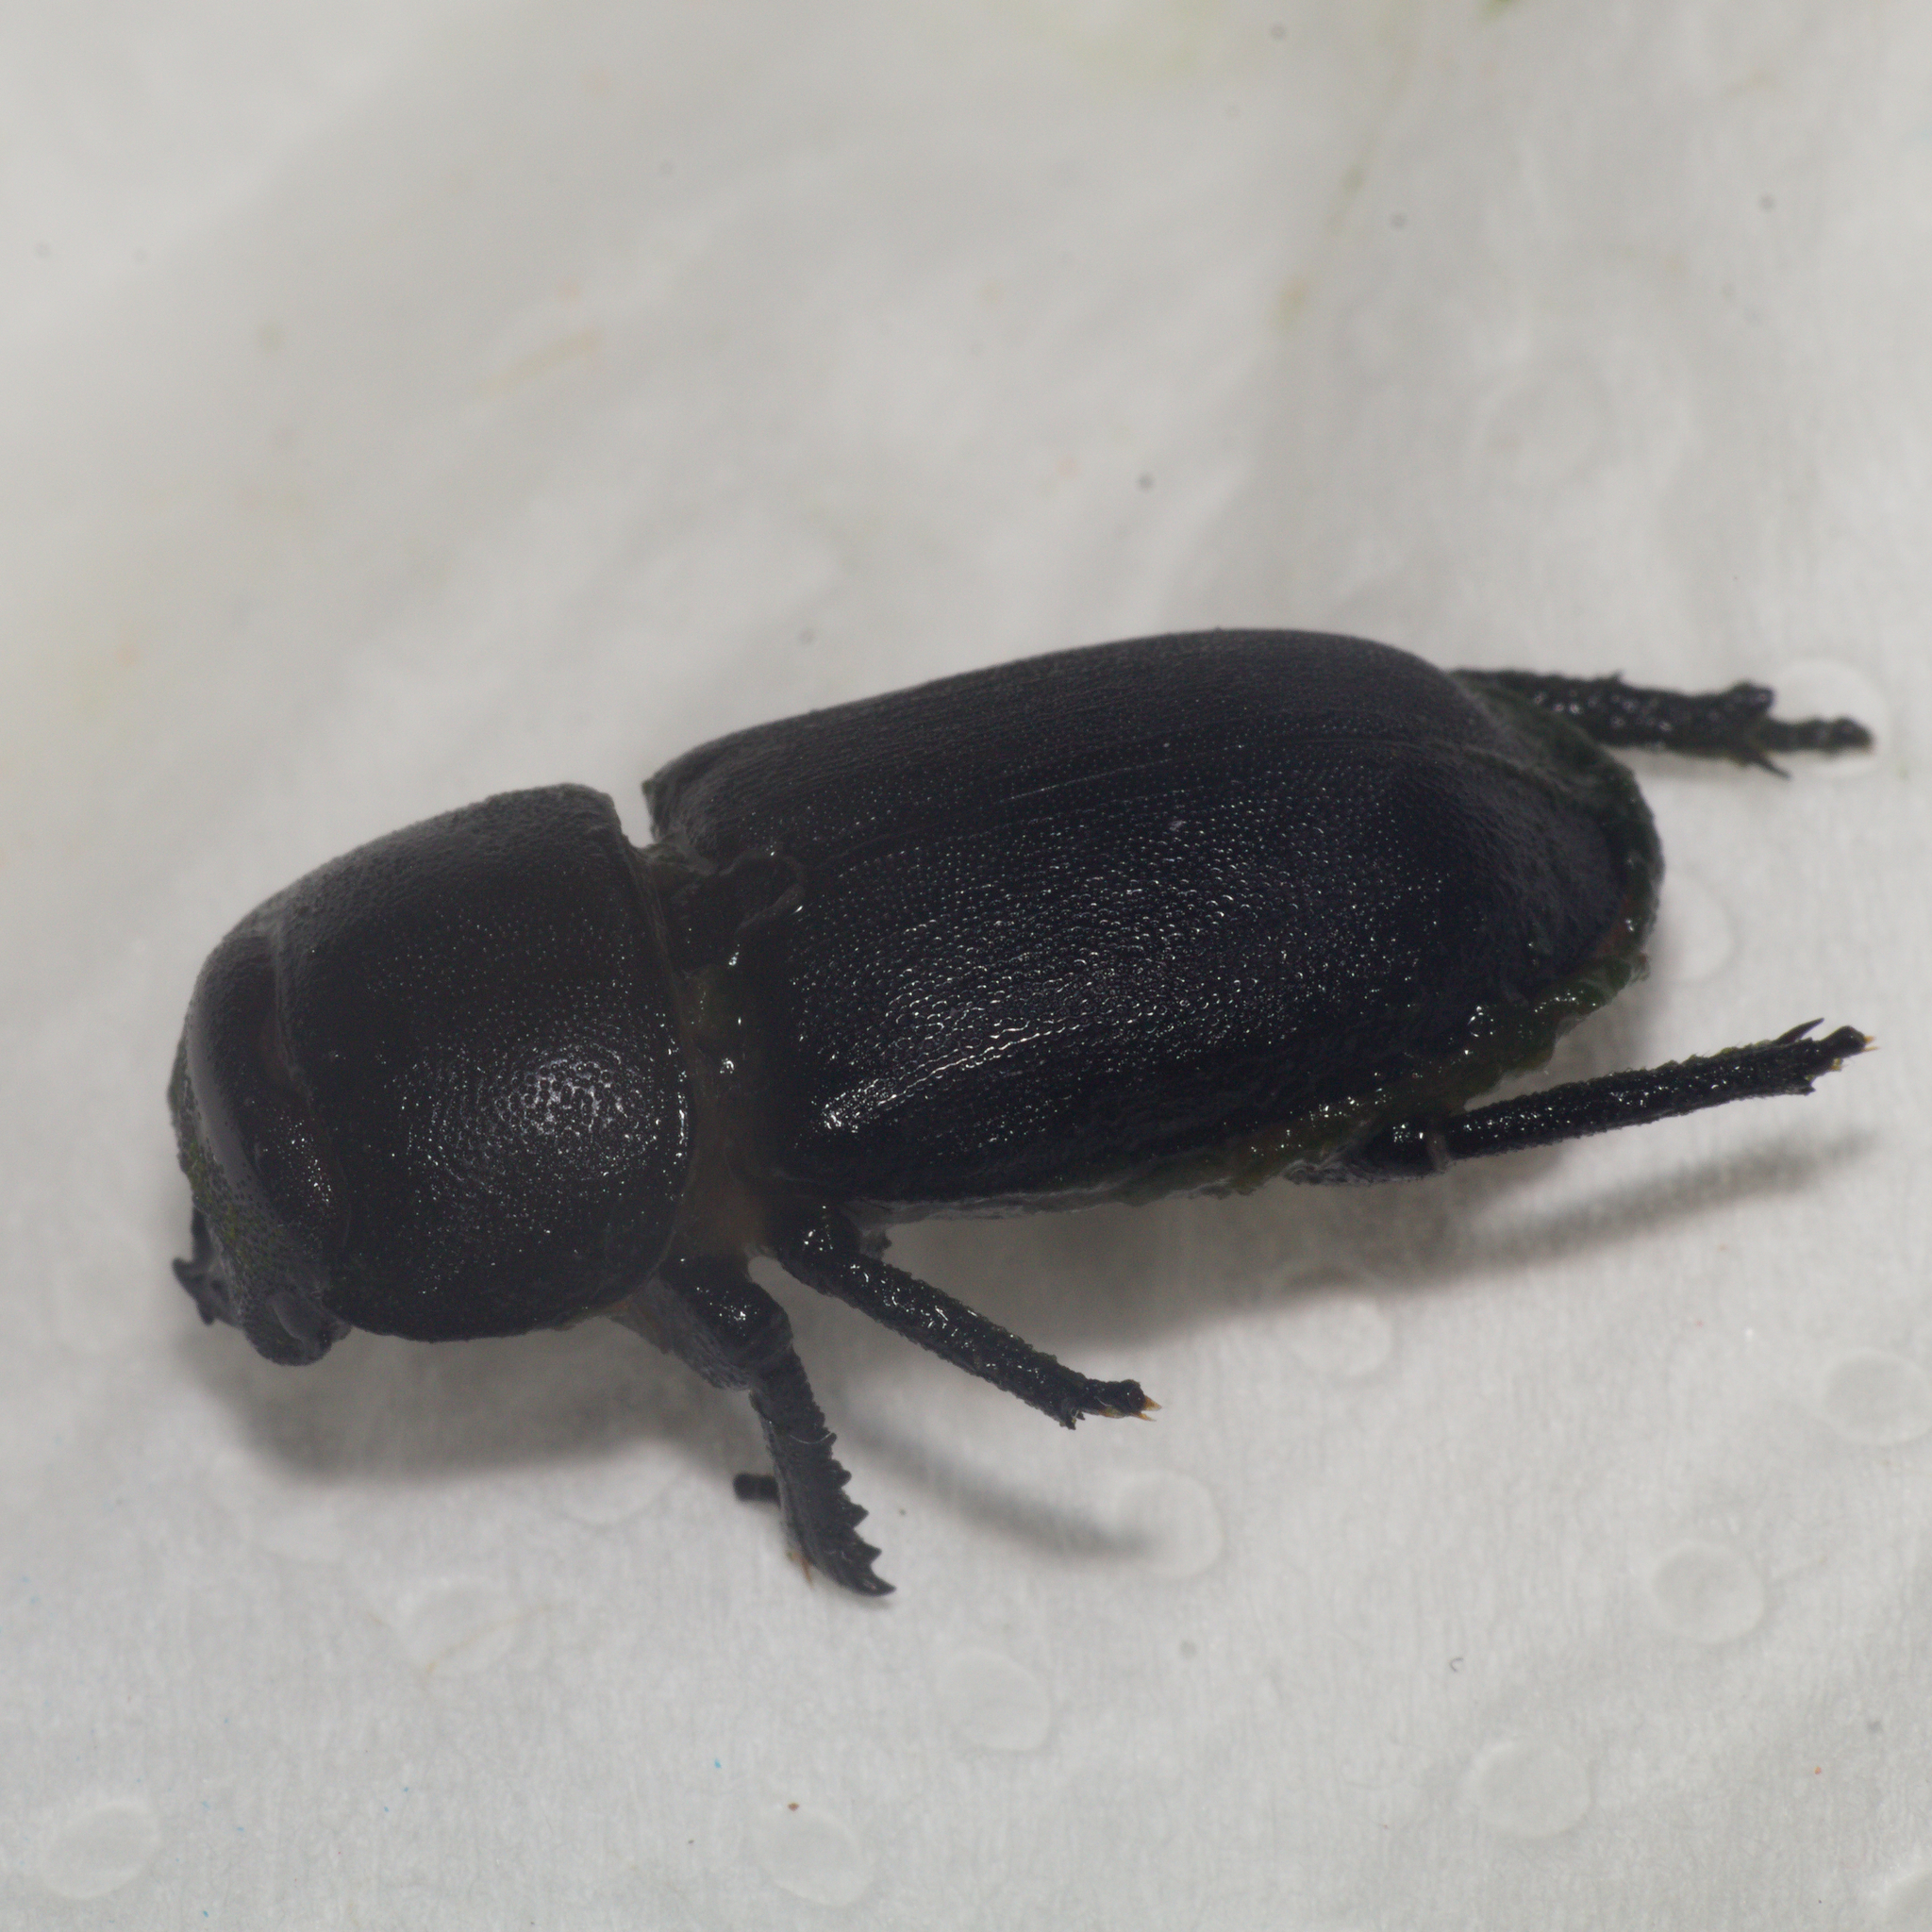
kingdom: Animalia
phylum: Arthropoda
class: Insecta
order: Coleoptera
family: Lucanidae
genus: Dorcus
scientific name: Dorcus parallelipipedus
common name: Lesser stag beetle
